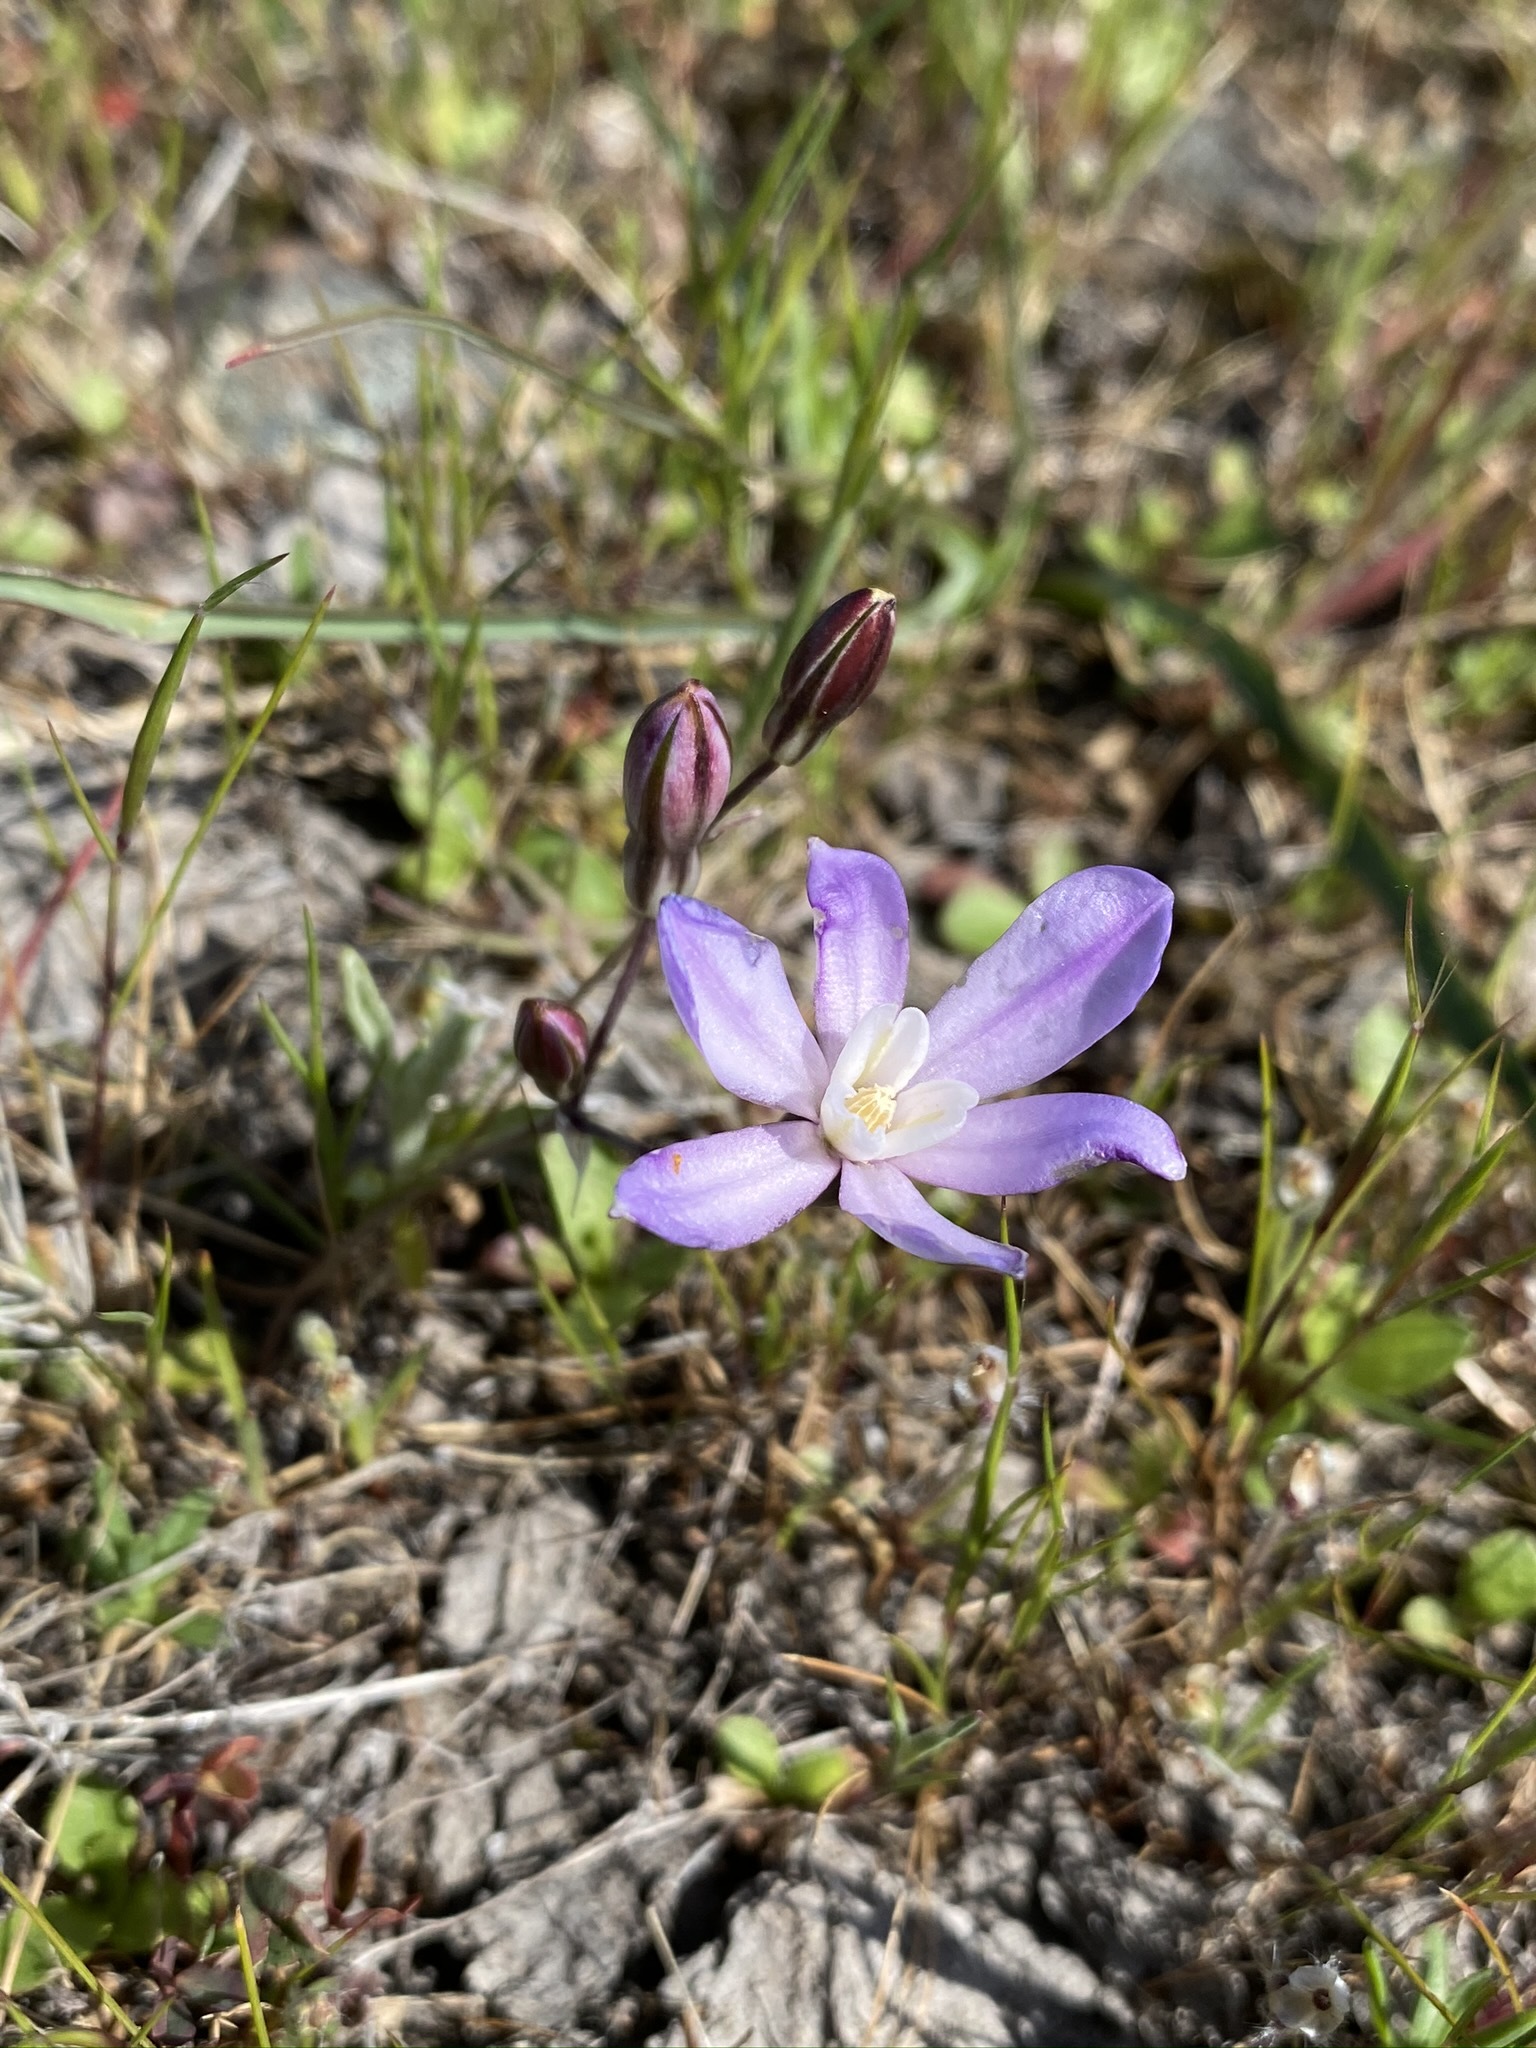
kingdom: Plantae
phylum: Tracheophyta
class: Liliopsida
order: Asparagales
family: Asparagaceae
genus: Brodiaea
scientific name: Brodiaea nana
